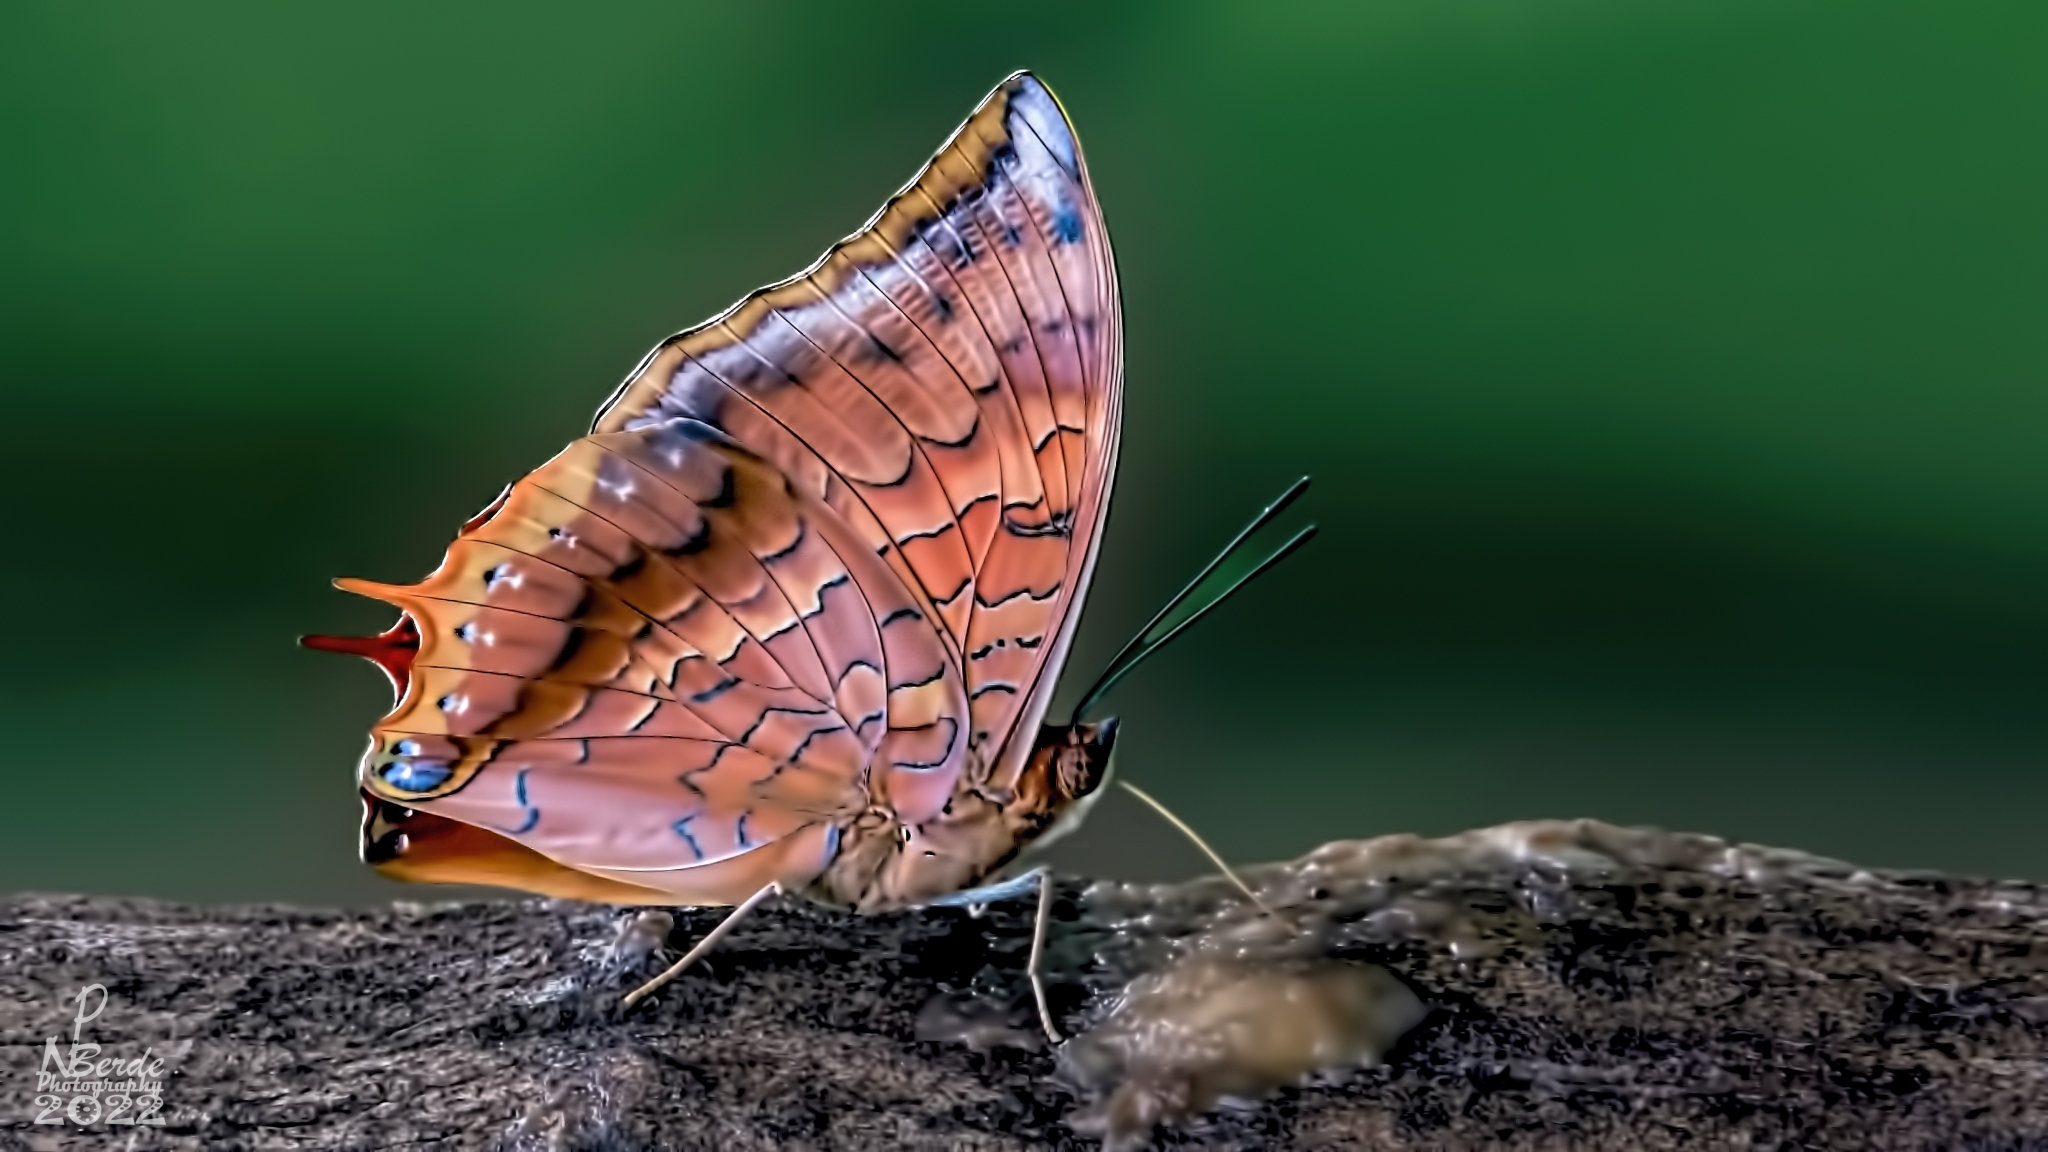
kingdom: Animalia
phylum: Arthropoda
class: Insecta
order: Lepidoptera
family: Nymphalidae
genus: Charaxes
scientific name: Charaxes psaphon
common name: Plain tawny rajah
